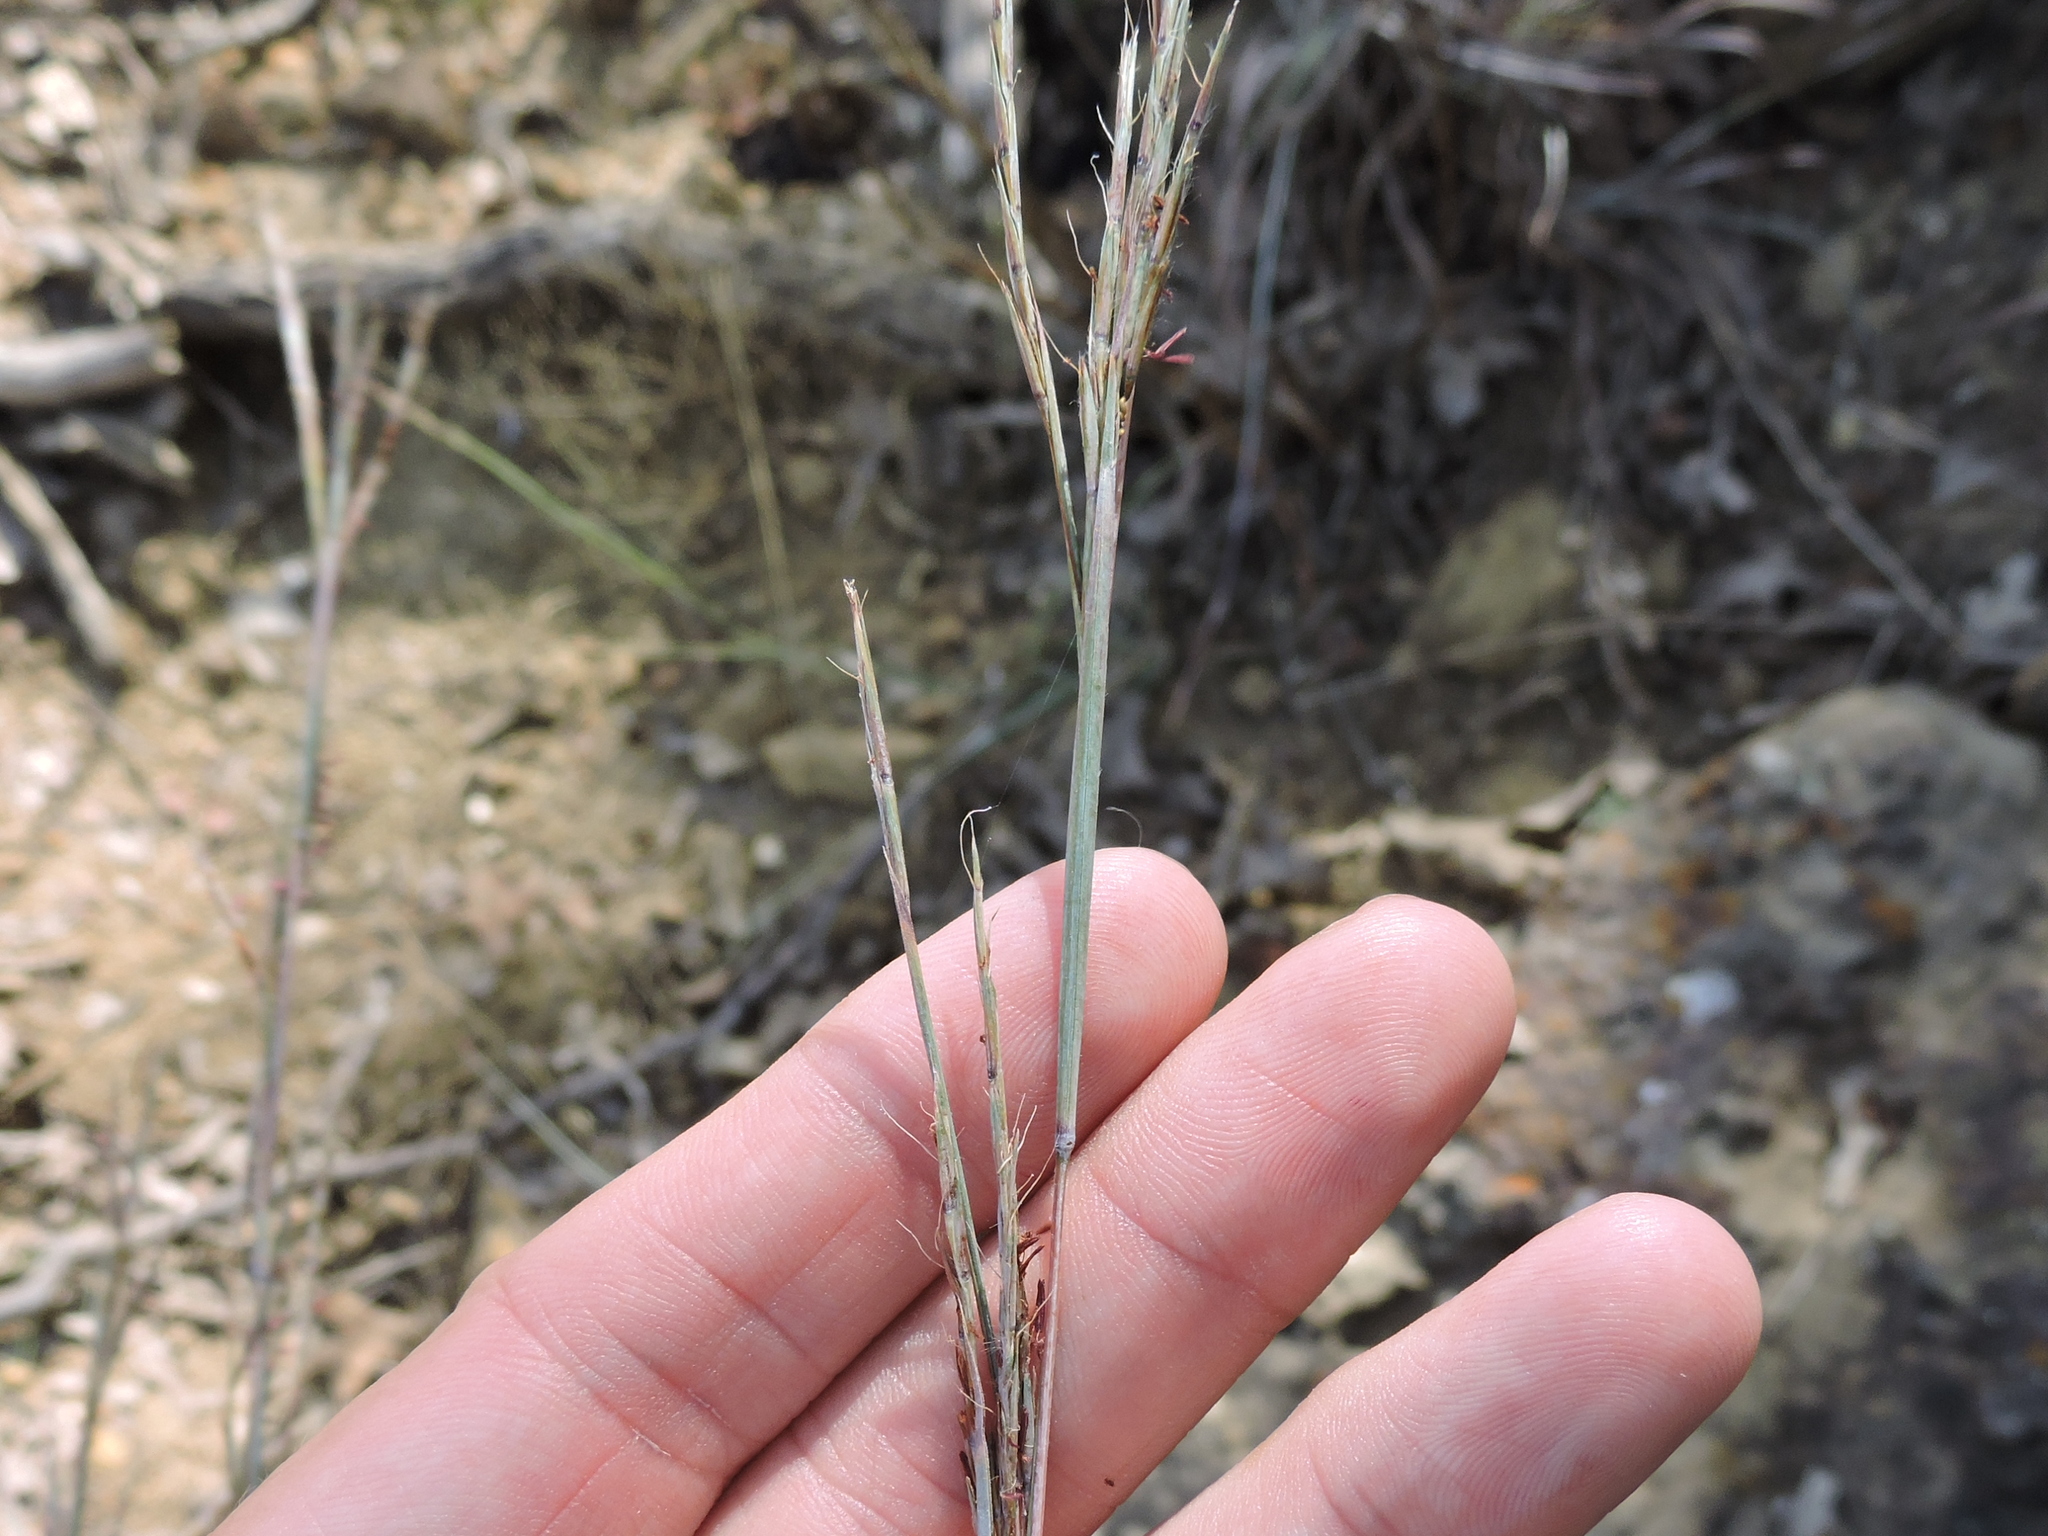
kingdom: Plantae
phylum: Tracheophyta
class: Liliopsida
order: Poales
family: Poaceae
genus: Schizachyrium
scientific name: Schizachyrium scoparium
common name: Little bluestem
